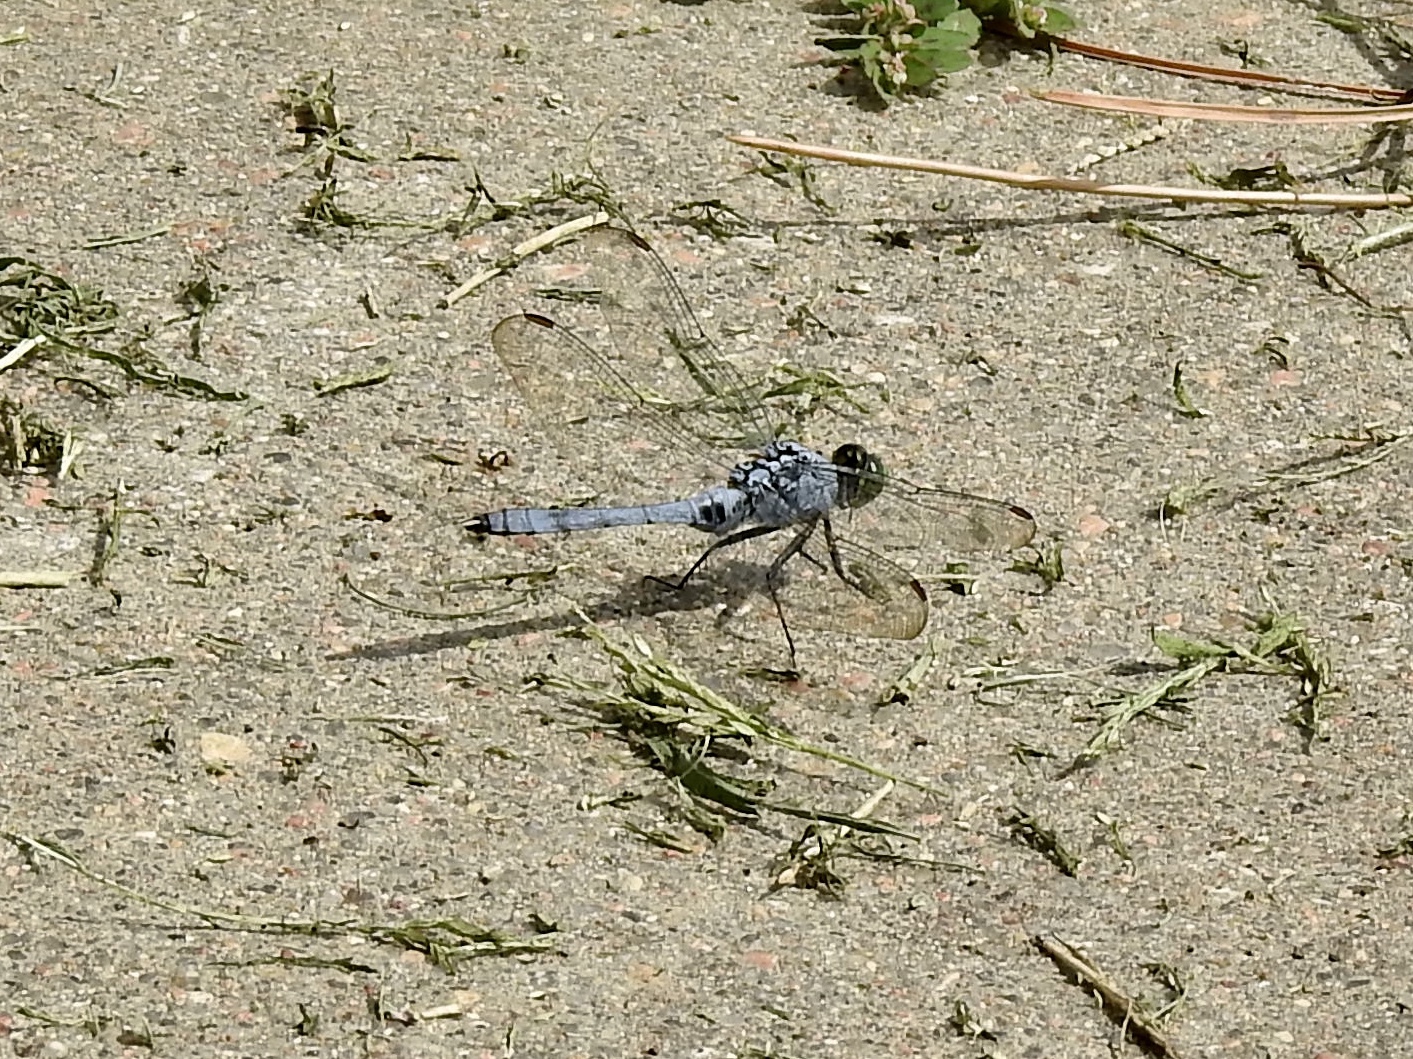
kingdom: Animalia
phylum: Arthropoda
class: Insecta
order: Odonata
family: Libellulidae
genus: Erythemis
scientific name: Erythemis simplicicollis
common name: Eastern pondhawk
